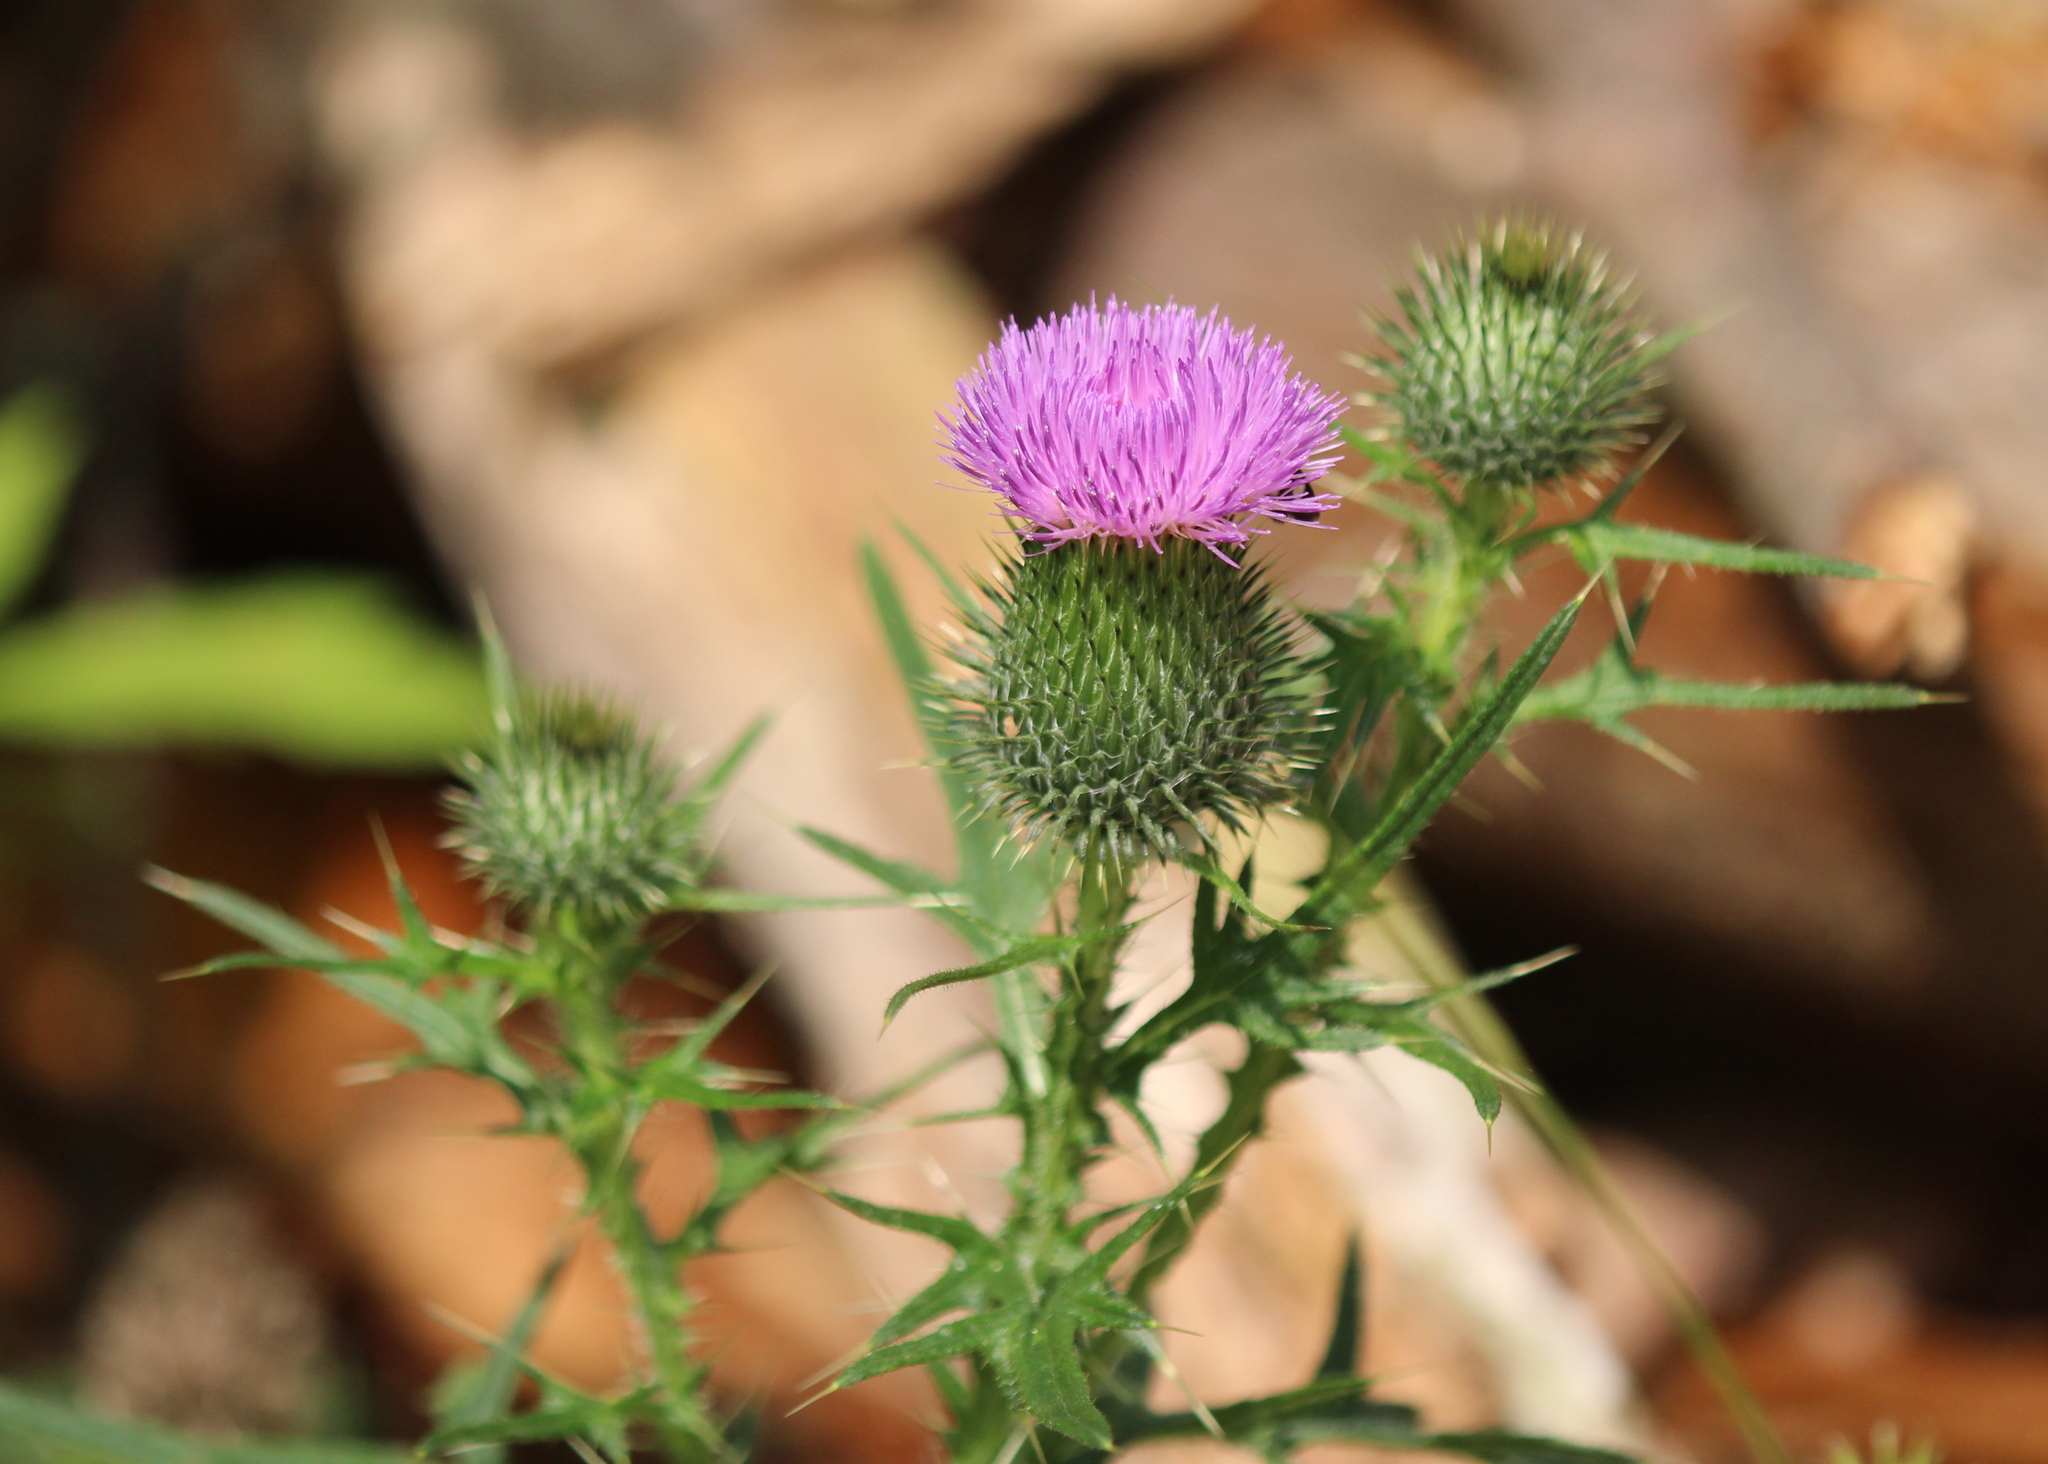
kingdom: Plantae
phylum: Tracheophyta
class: Magnoliopsida
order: Asterales
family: Asteraceae
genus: Cirsium
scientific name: Cirsium vulgare
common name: Bull thistle
